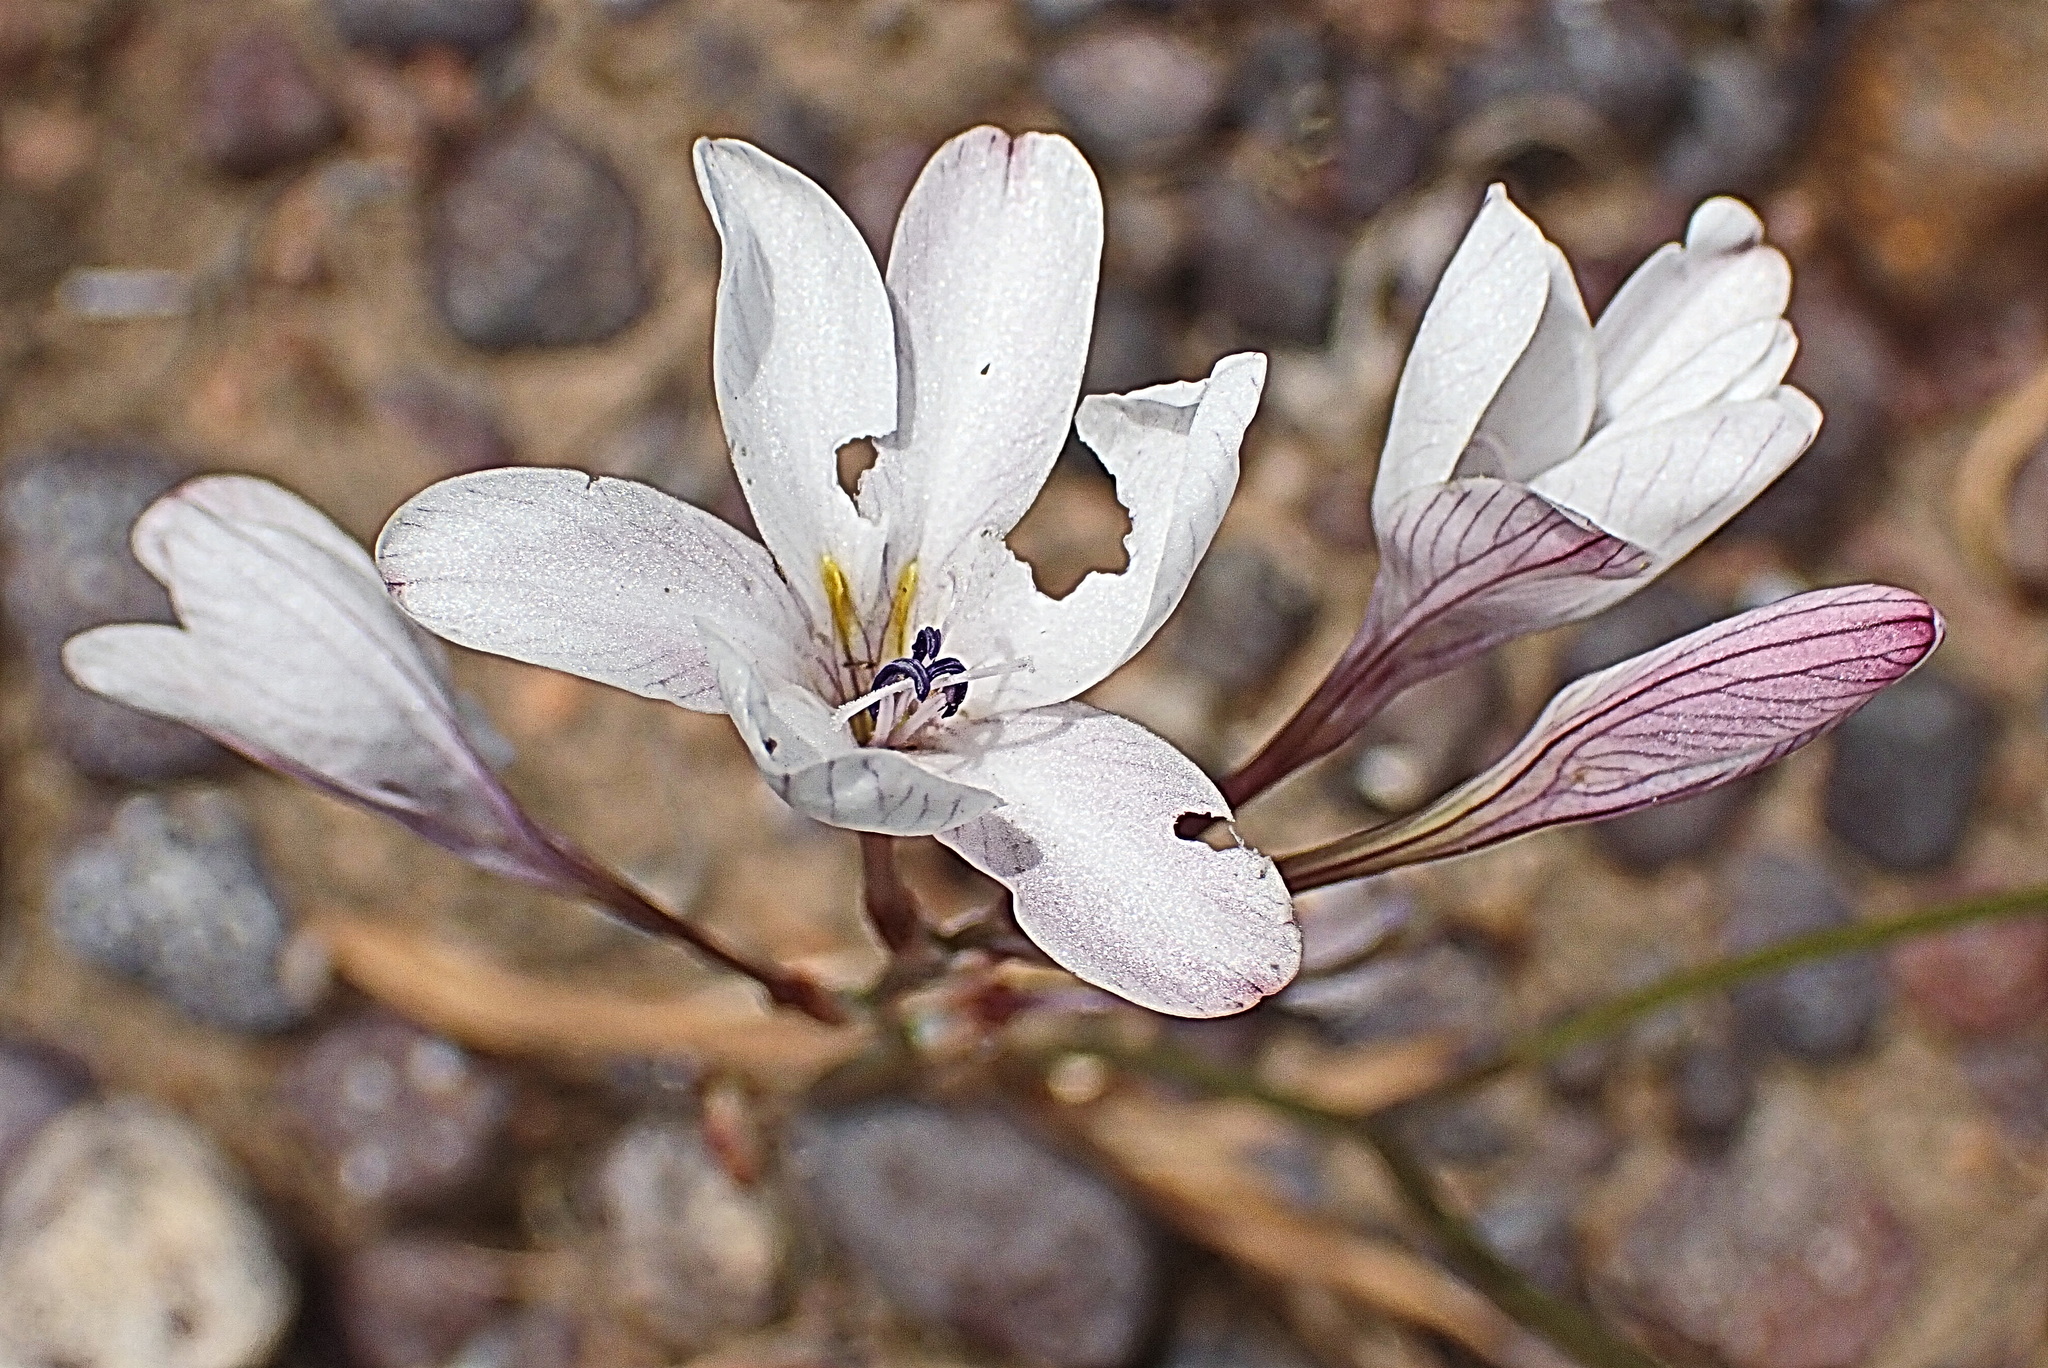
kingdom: Plantae
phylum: Tracheophyta
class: Liliopsida
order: Asparagales
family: Iridaceae
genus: Tritonia
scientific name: Tritonia pallida
